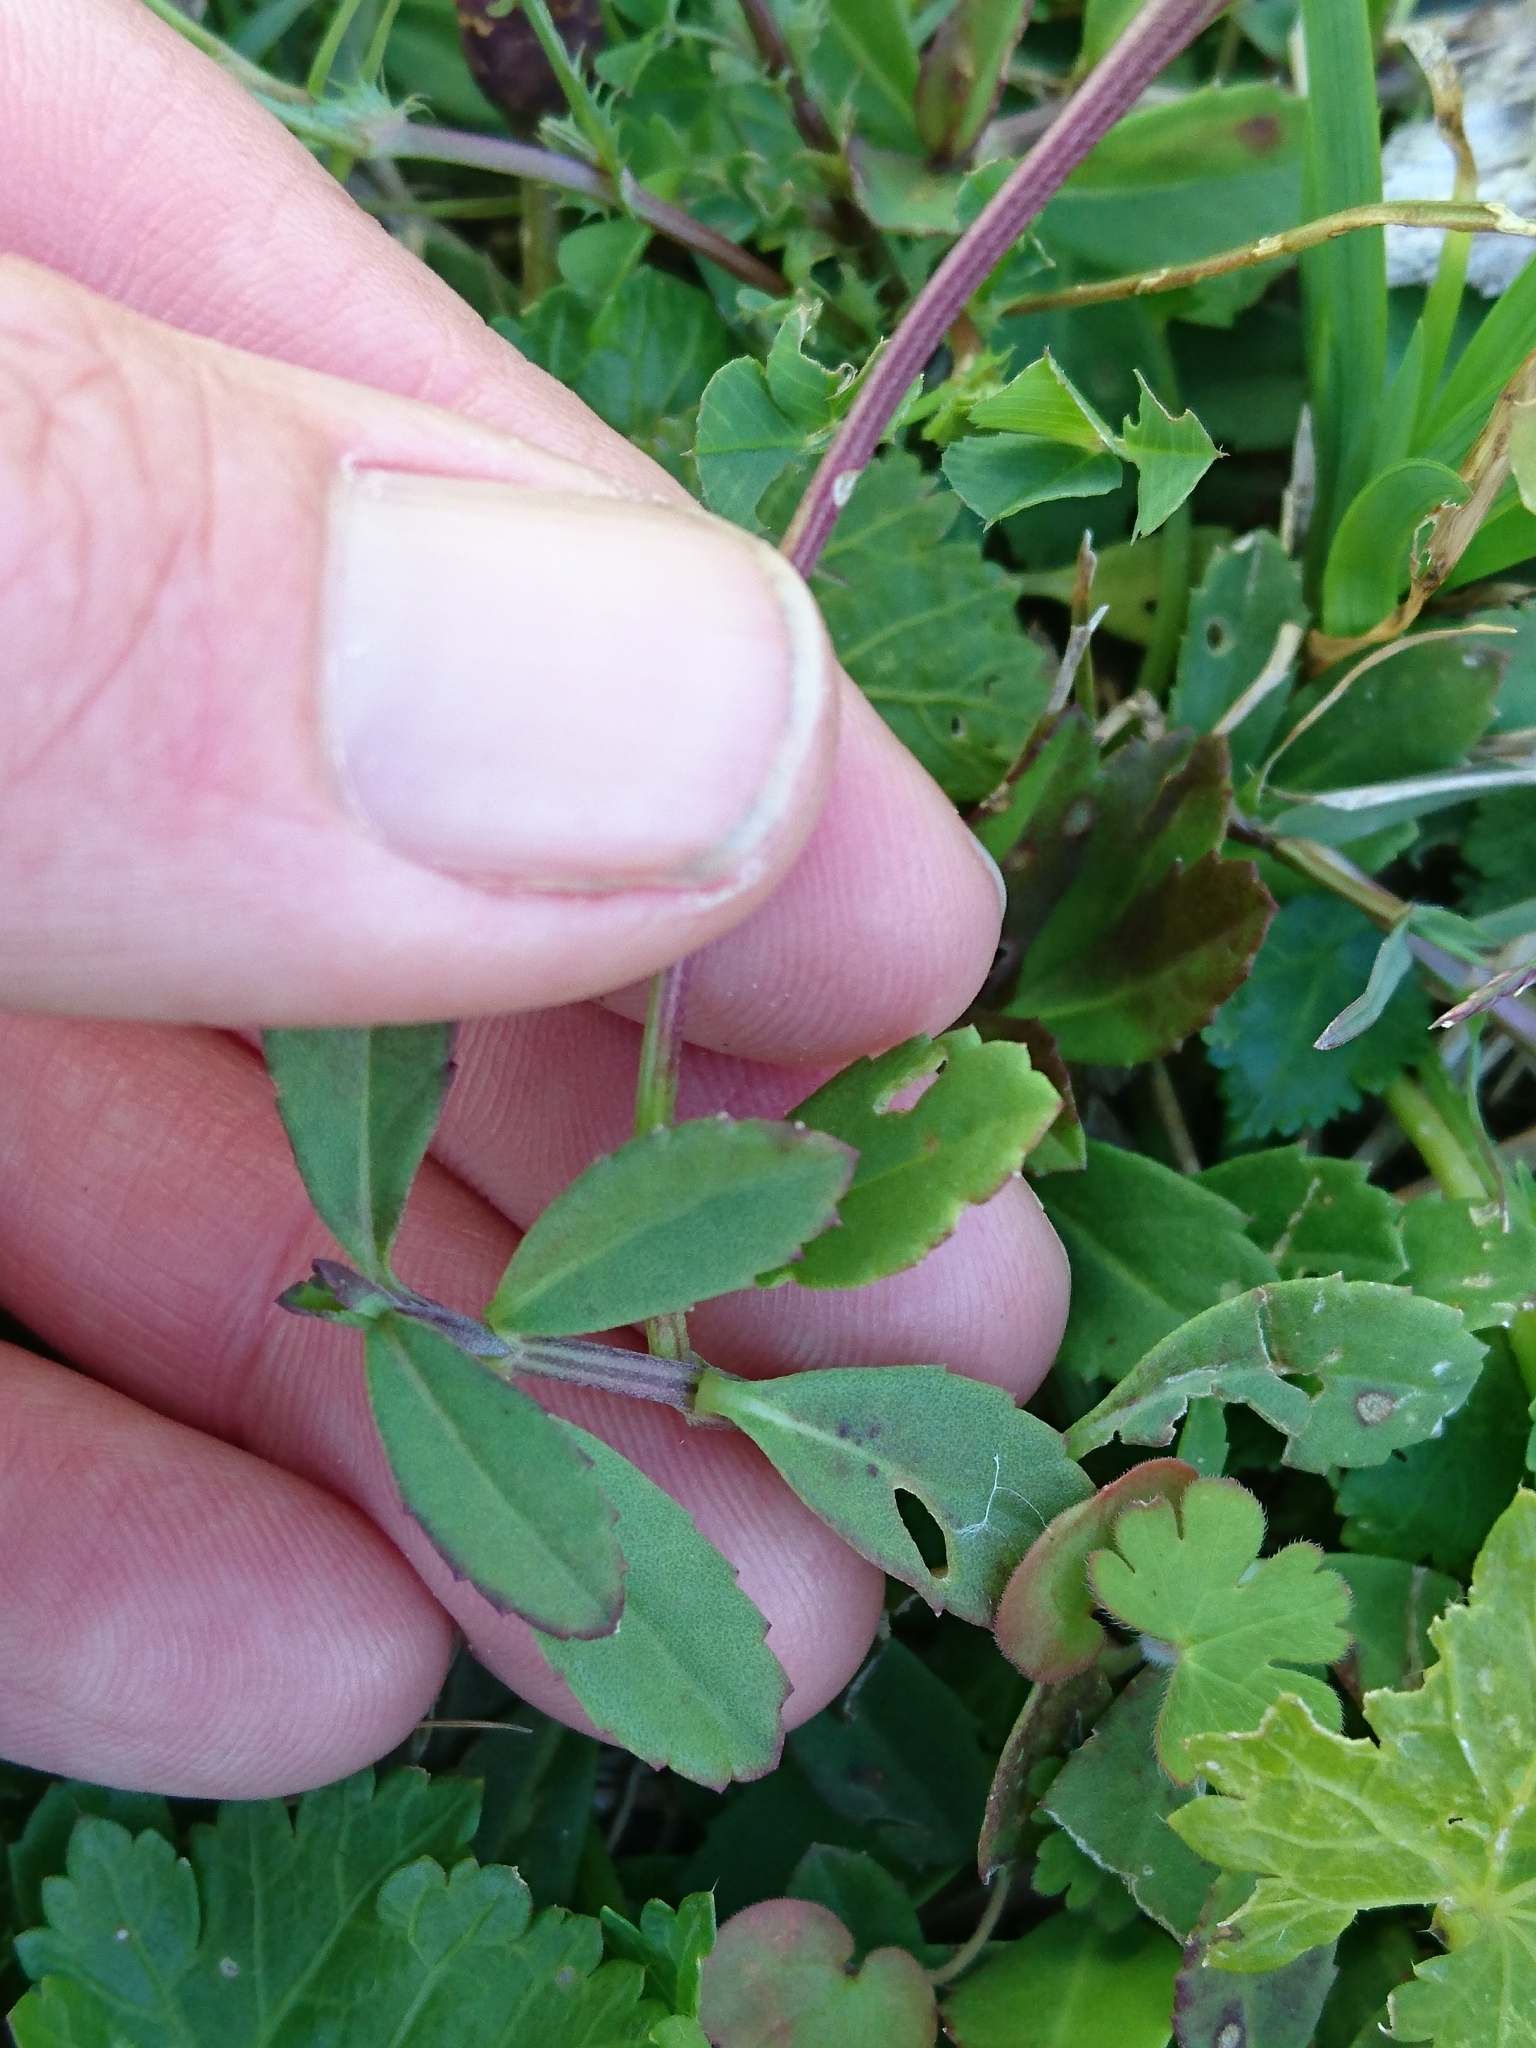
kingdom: Plantae
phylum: Tracheophyta
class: Magnoliopsida
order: Lamiales
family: Verbenaceae
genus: Phyla
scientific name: Phyla nodiflora
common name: Frogfruit
